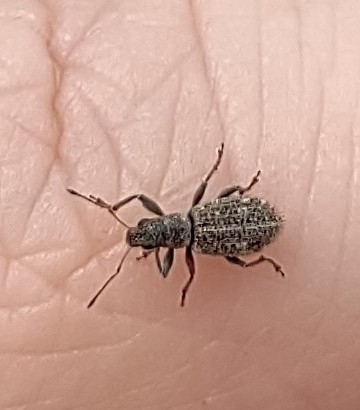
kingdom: Animalia
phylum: Arthropoda
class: Insecta
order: Coleoptera
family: Curculionidae
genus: Polydrusus
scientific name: Polydrusus inustus
